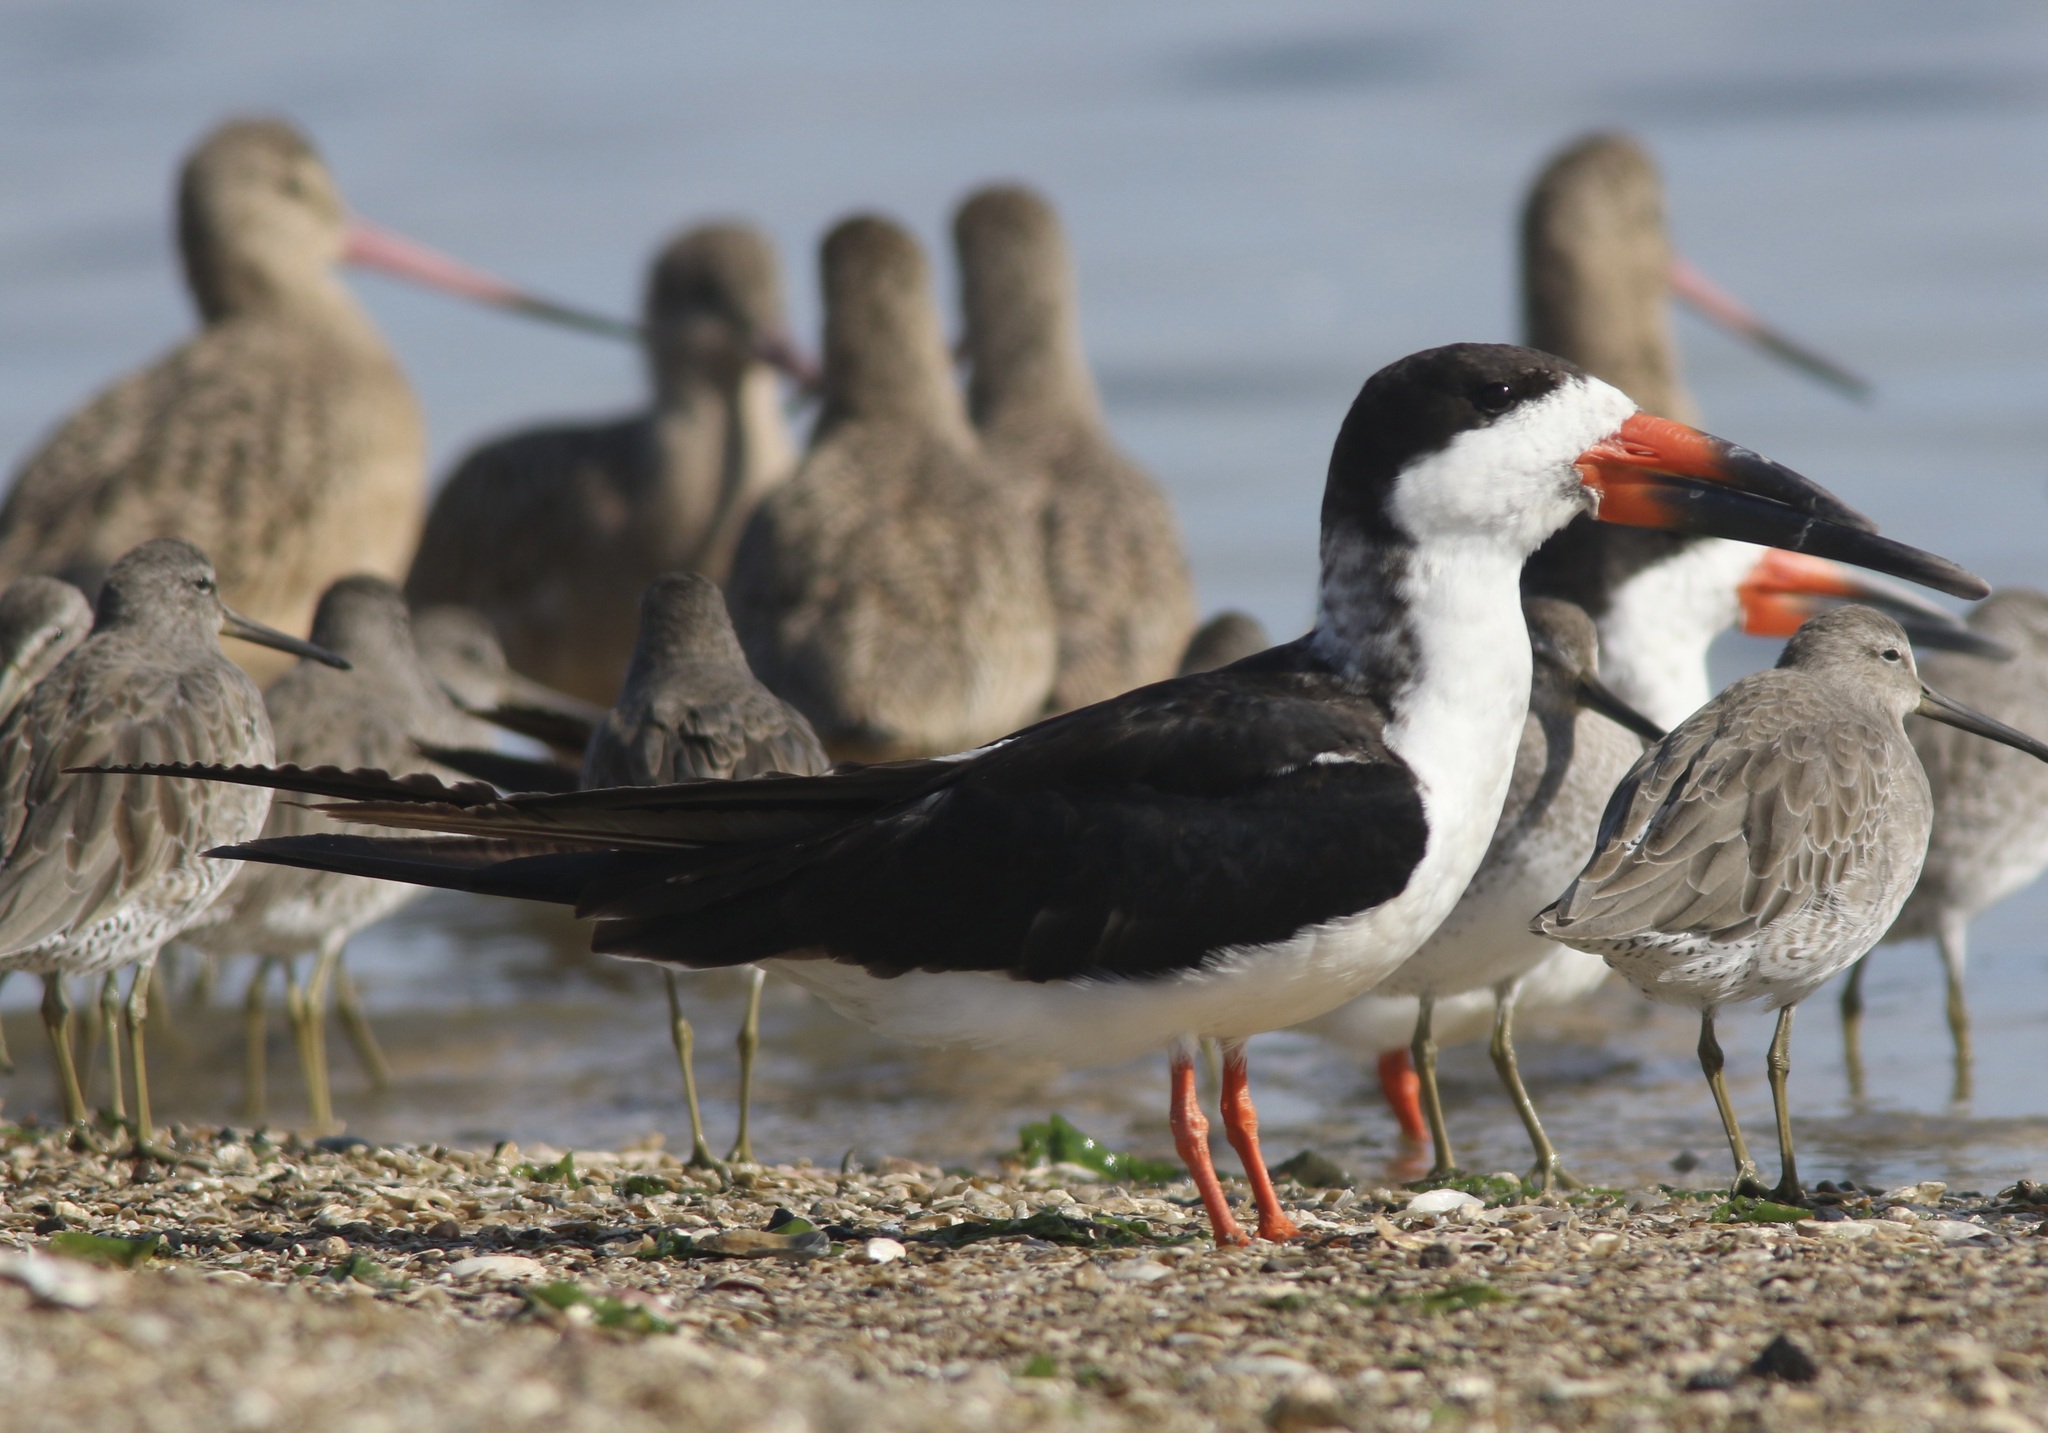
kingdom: Animalia
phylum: Chordata
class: Aves
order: Charadriiformes
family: Laridae
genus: Rynchops
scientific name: Rynchops niger
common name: Black skimmer
